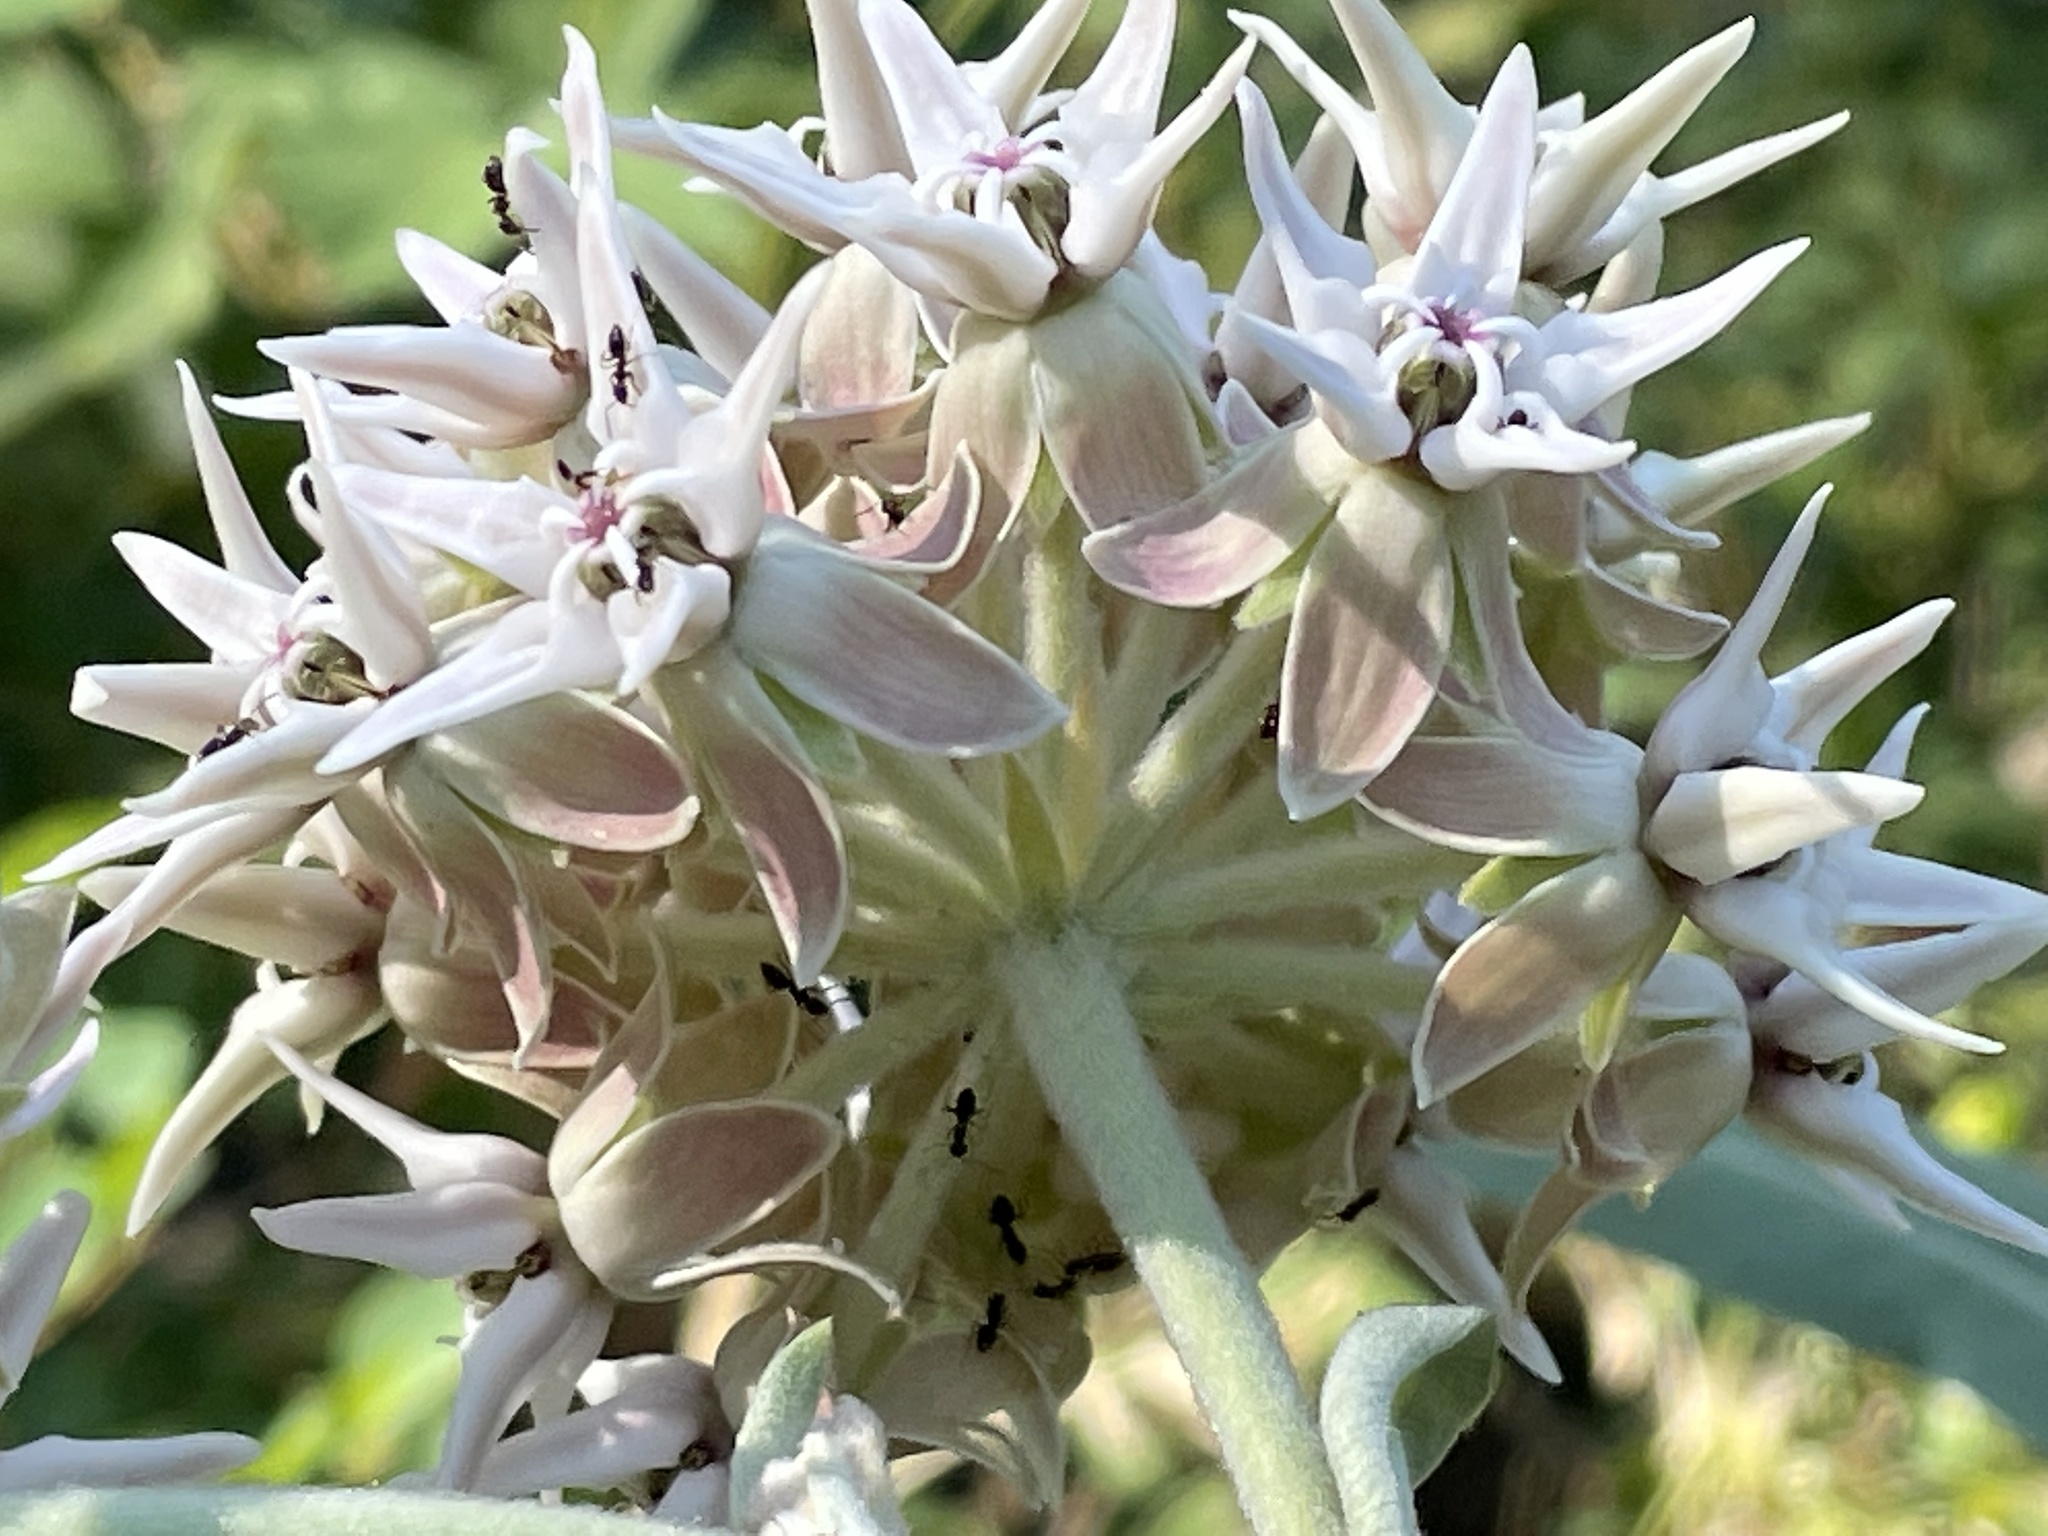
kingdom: Plantae
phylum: Tracheophyta
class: Magnoliopsida
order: Gentianales
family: Apocynaceae
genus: Asclepias
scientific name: Asclepias speciosa
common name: Showy milkweed
